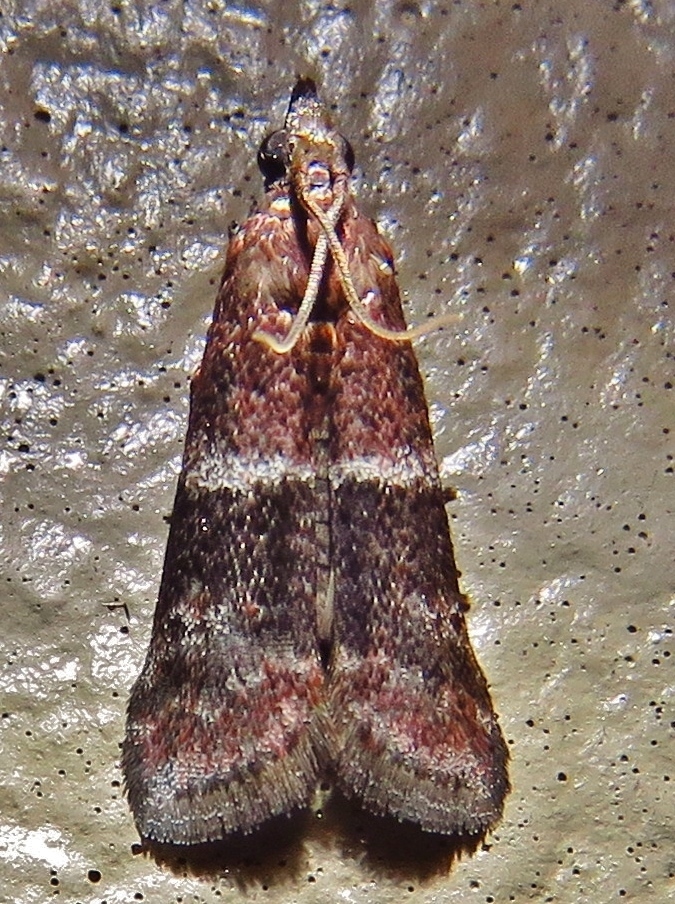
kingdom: Animalia
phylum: Arthropoda
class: Insecta
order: Lepidoptera
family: Pyralidae
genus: Moodna
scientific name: Moodna ostrinella
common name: Darker moodna moth
